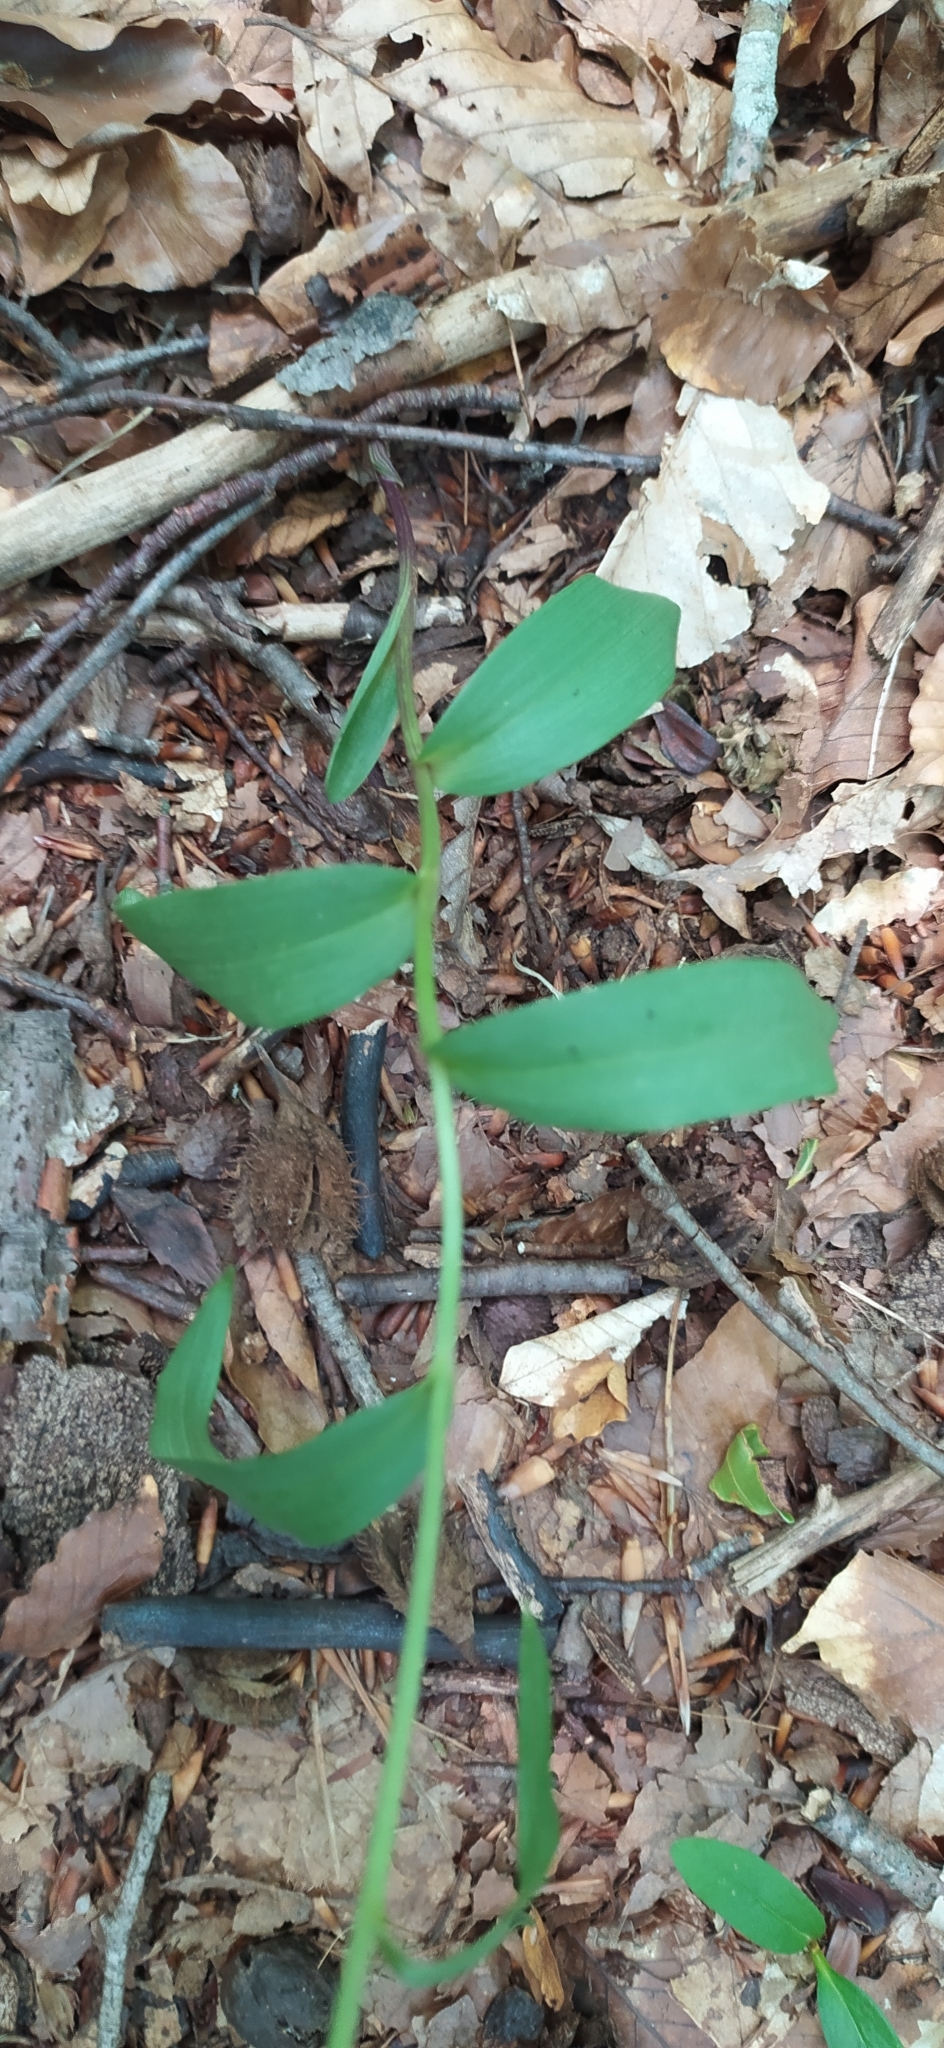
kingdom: Plantae
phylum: Tracheophyta
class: Liliopsida
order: Asparagales
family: Orchidaceae
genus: Cephalanthera
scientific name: Cephalanthera rubra
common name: Red helleborine
